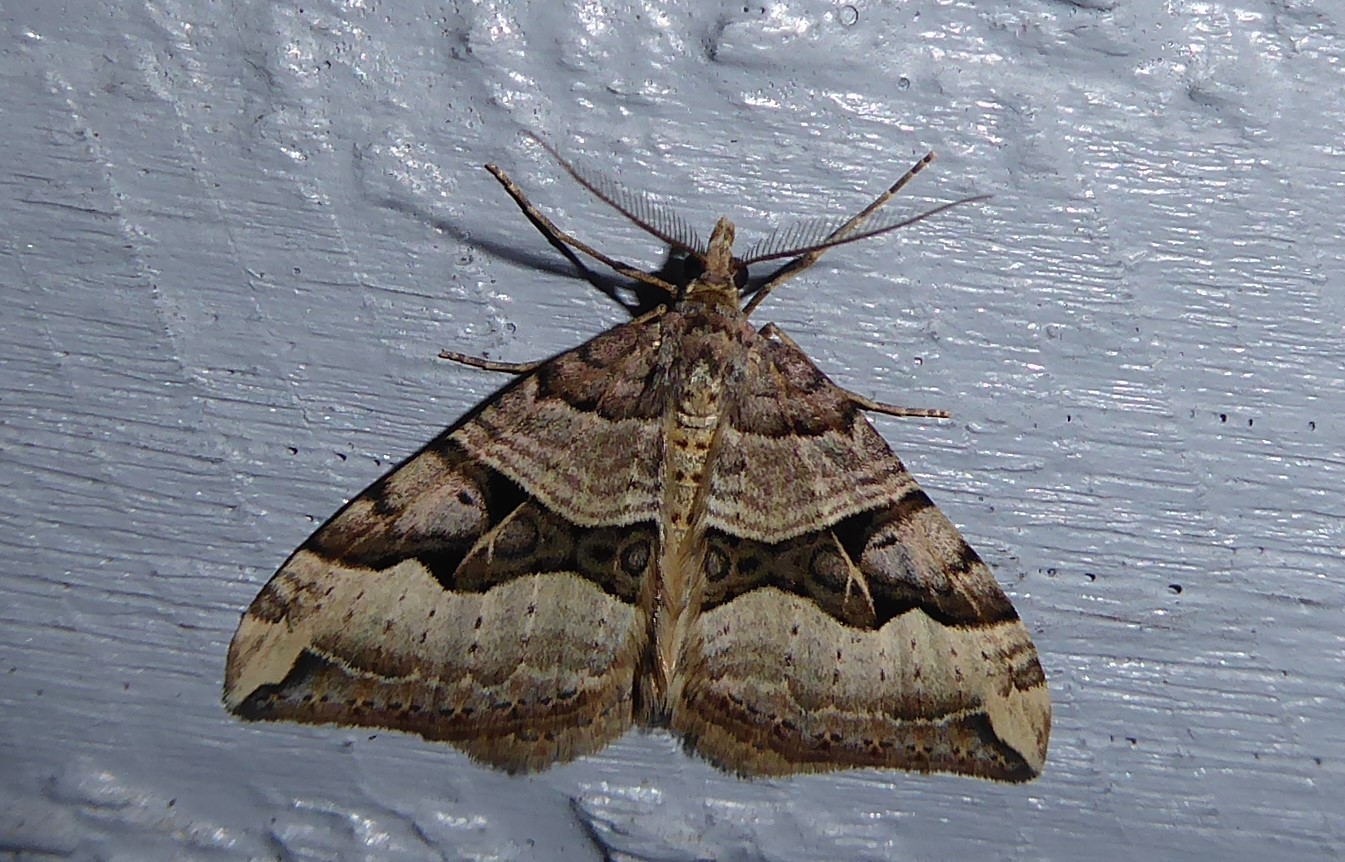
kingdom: Animalia
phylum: Arthropoda
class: Insecta
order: Lepidoptera
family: Geometridae
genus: Xanthorhoe
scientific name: Xanthorhoe semifissata
